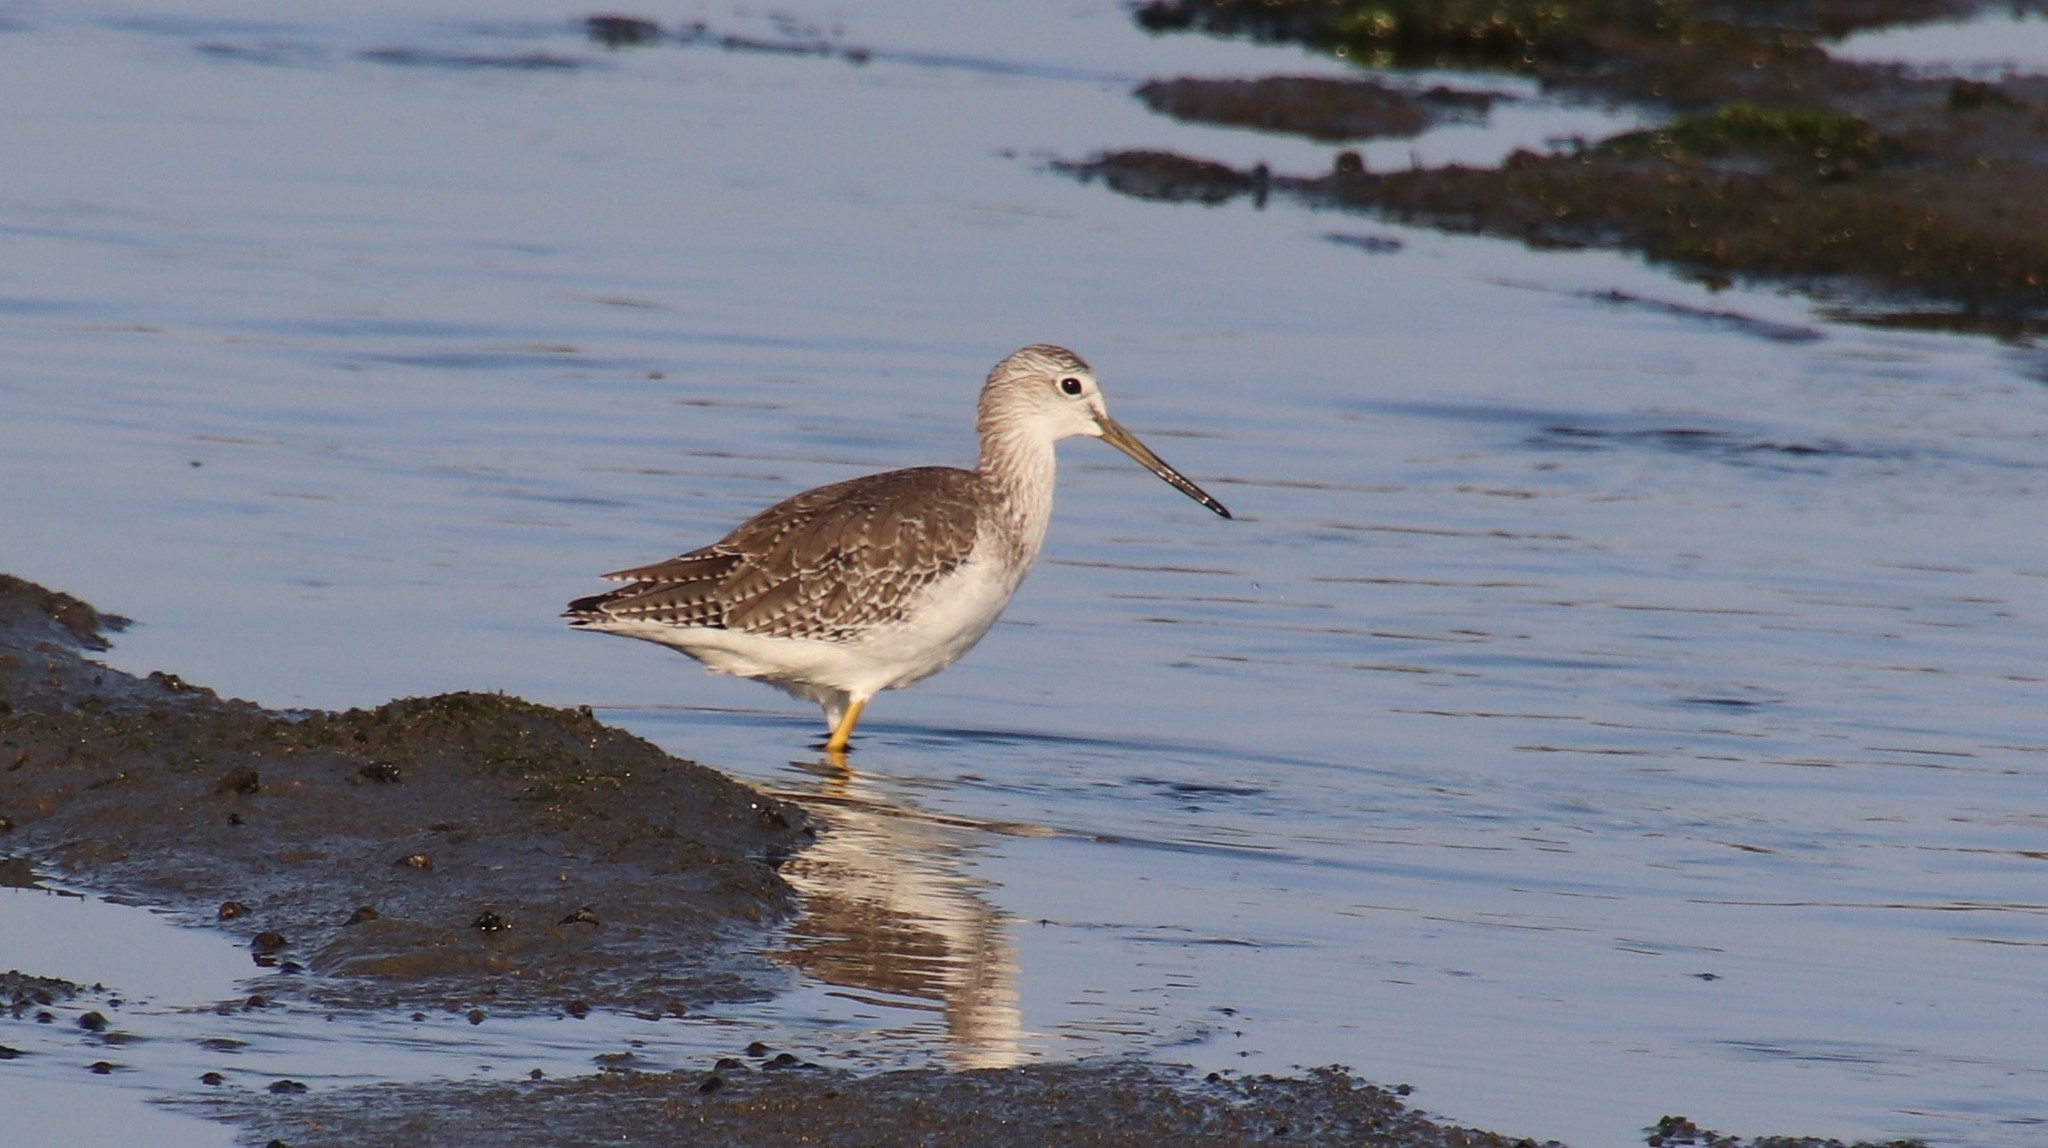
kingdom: Animalia
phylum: Chordata
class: Aves
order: Charadriiformes
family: Scolopacidae
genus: Tringa
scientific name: Tringa melanoleuca
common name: Greater yellowlegs
